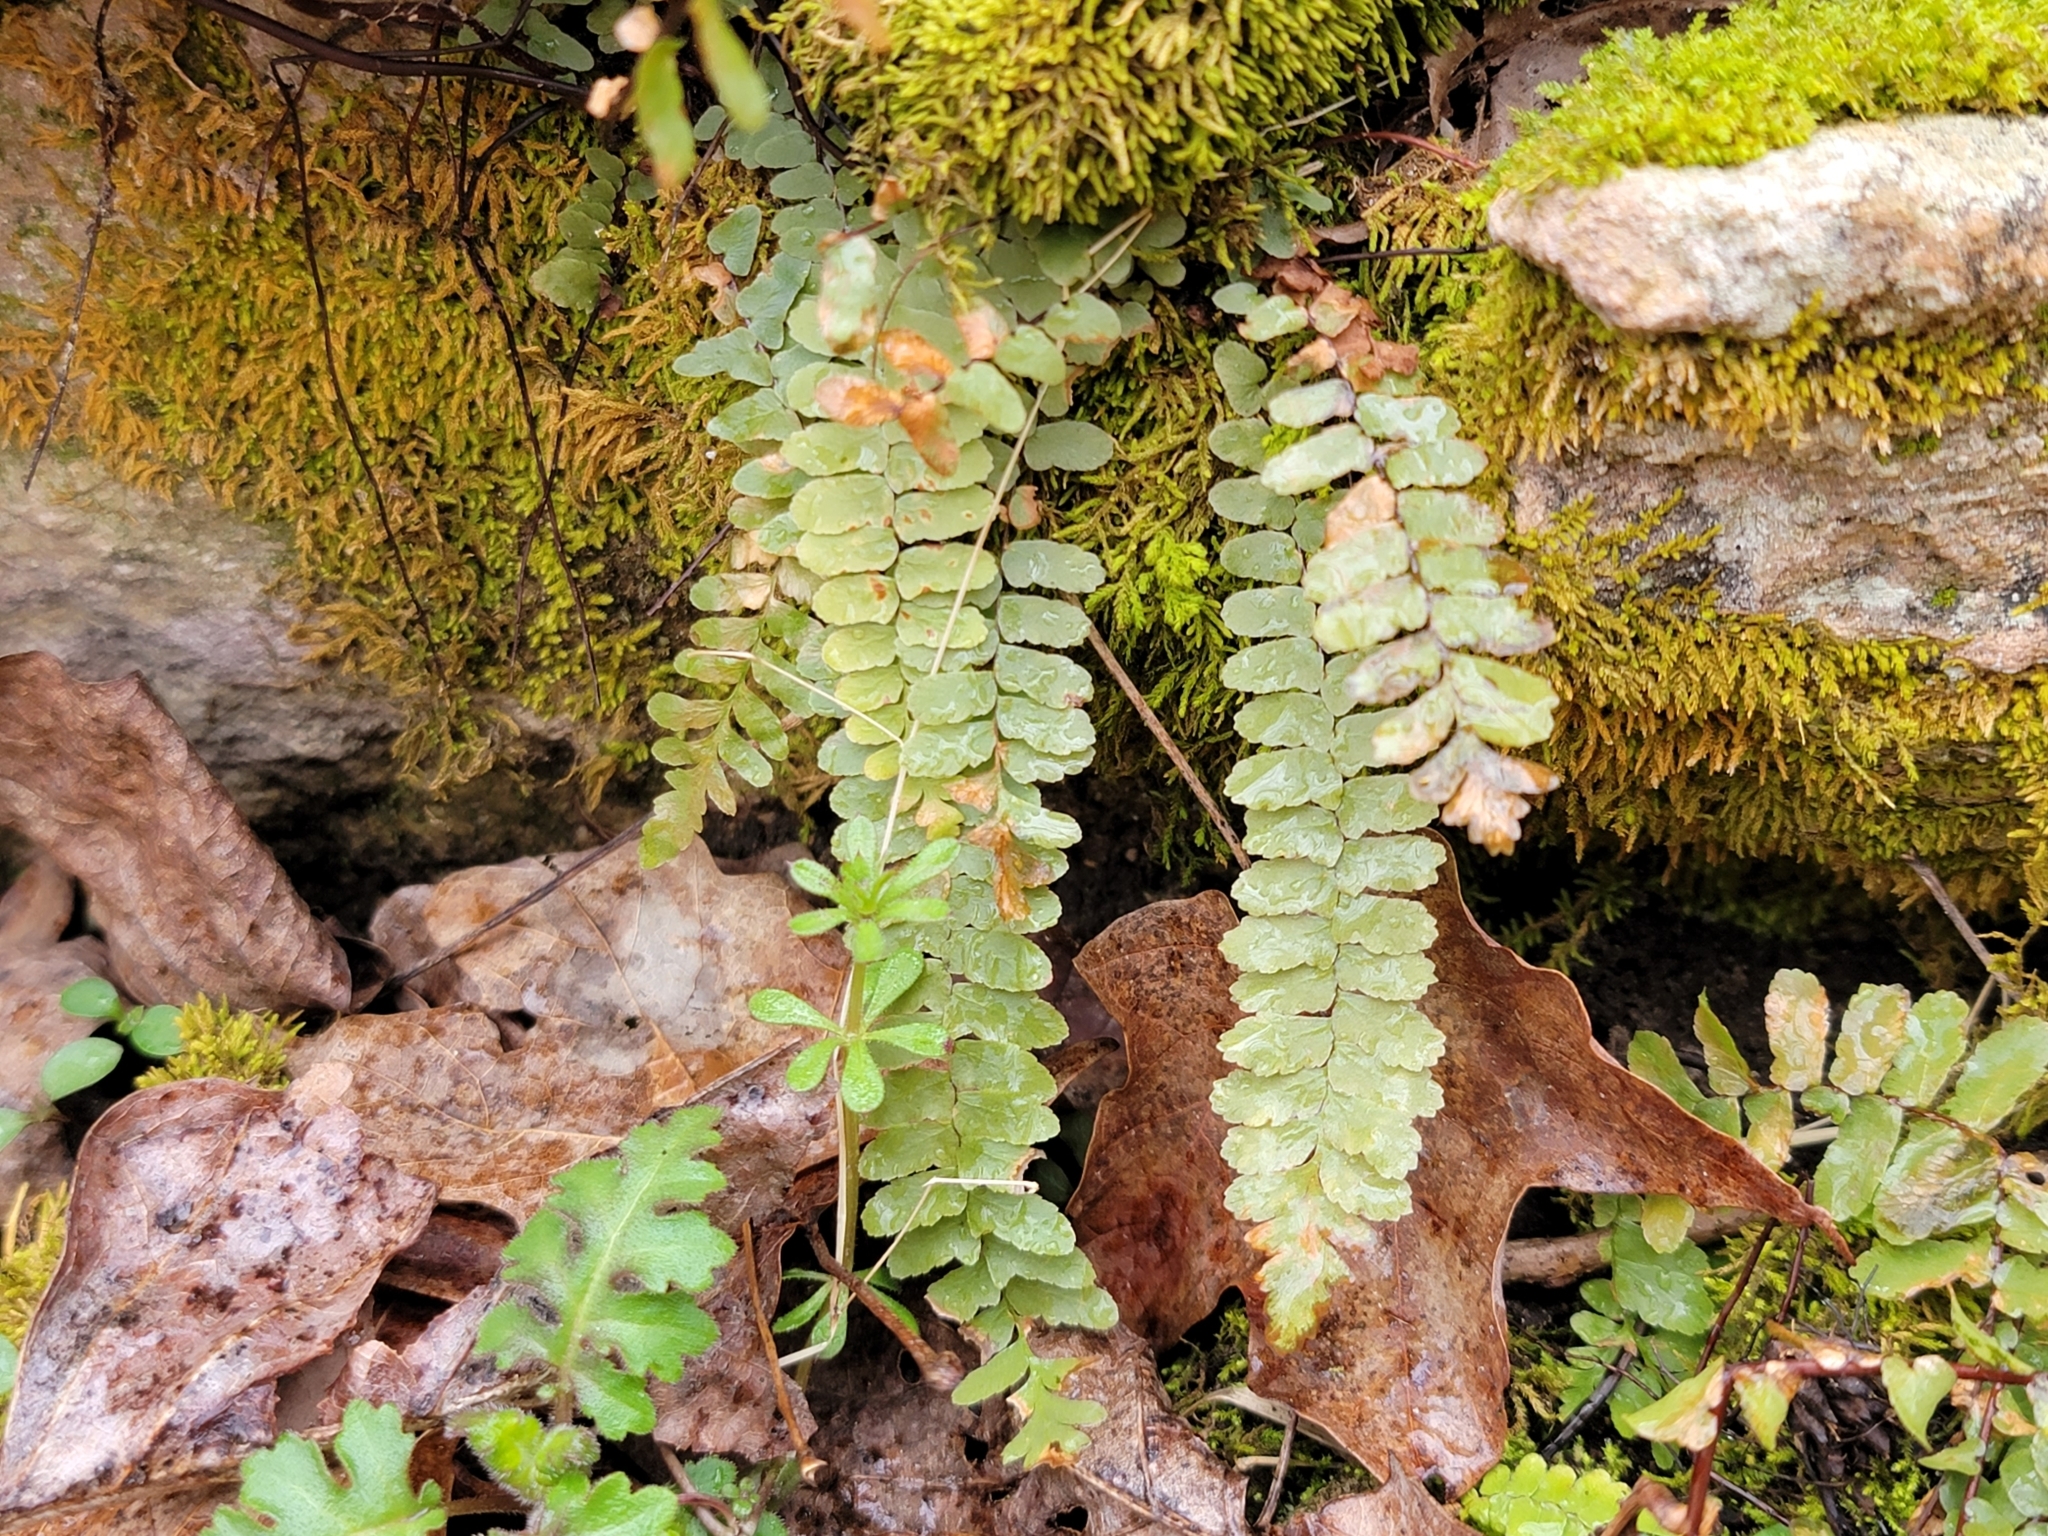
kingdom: Plantae
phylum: Tracheophyta
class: Polypodiopsida
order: Polypodiales
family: Aspleniaceae
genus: Asplenium
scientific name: Asplenium platyneuron
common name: Ebony spleenwort
